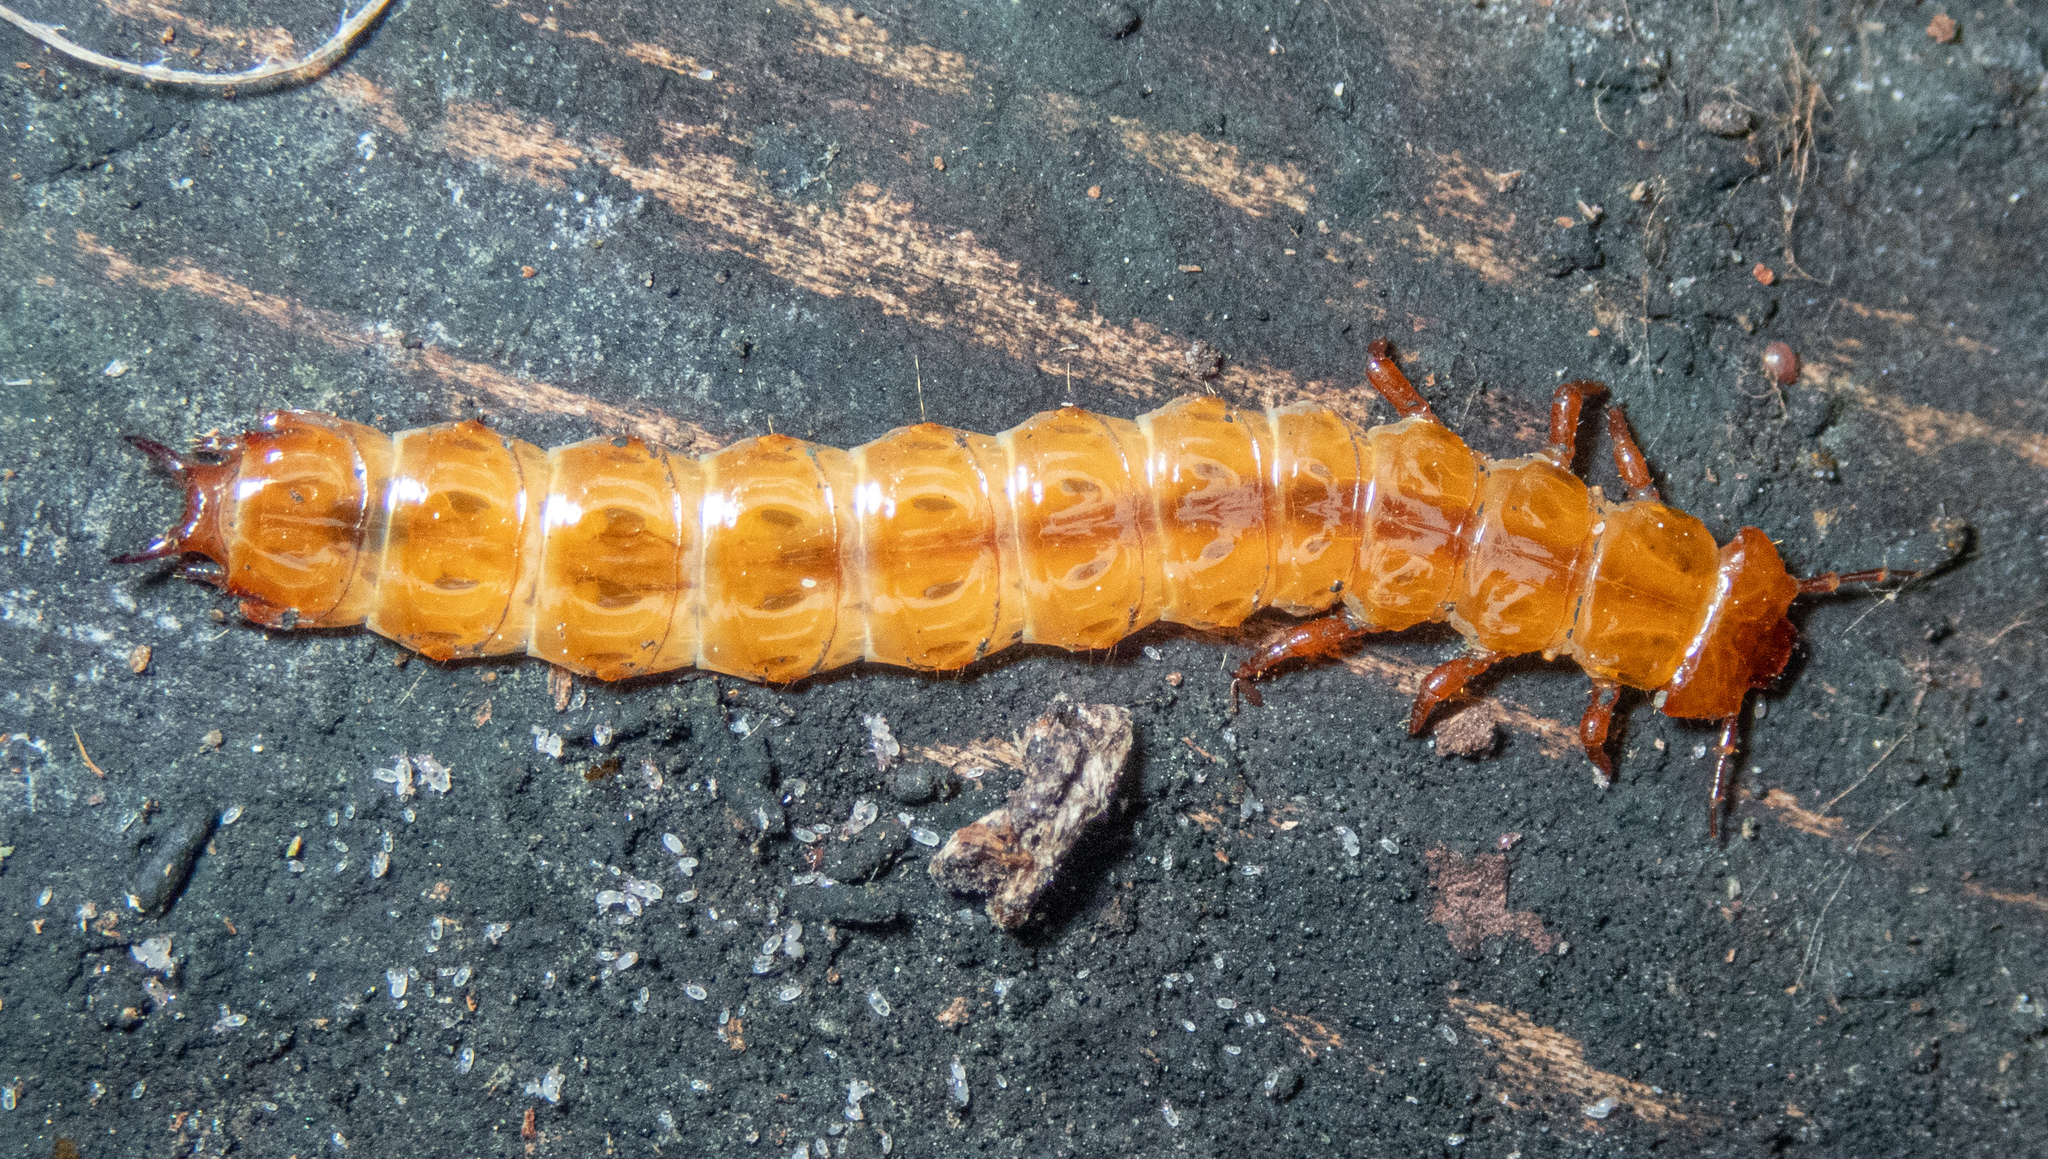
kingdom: Animalia
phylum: Arthropoda
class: Insecta
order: Coleoptera
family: Cucujidae
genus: Cucujus
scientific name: Cucujus cinnaberinus
